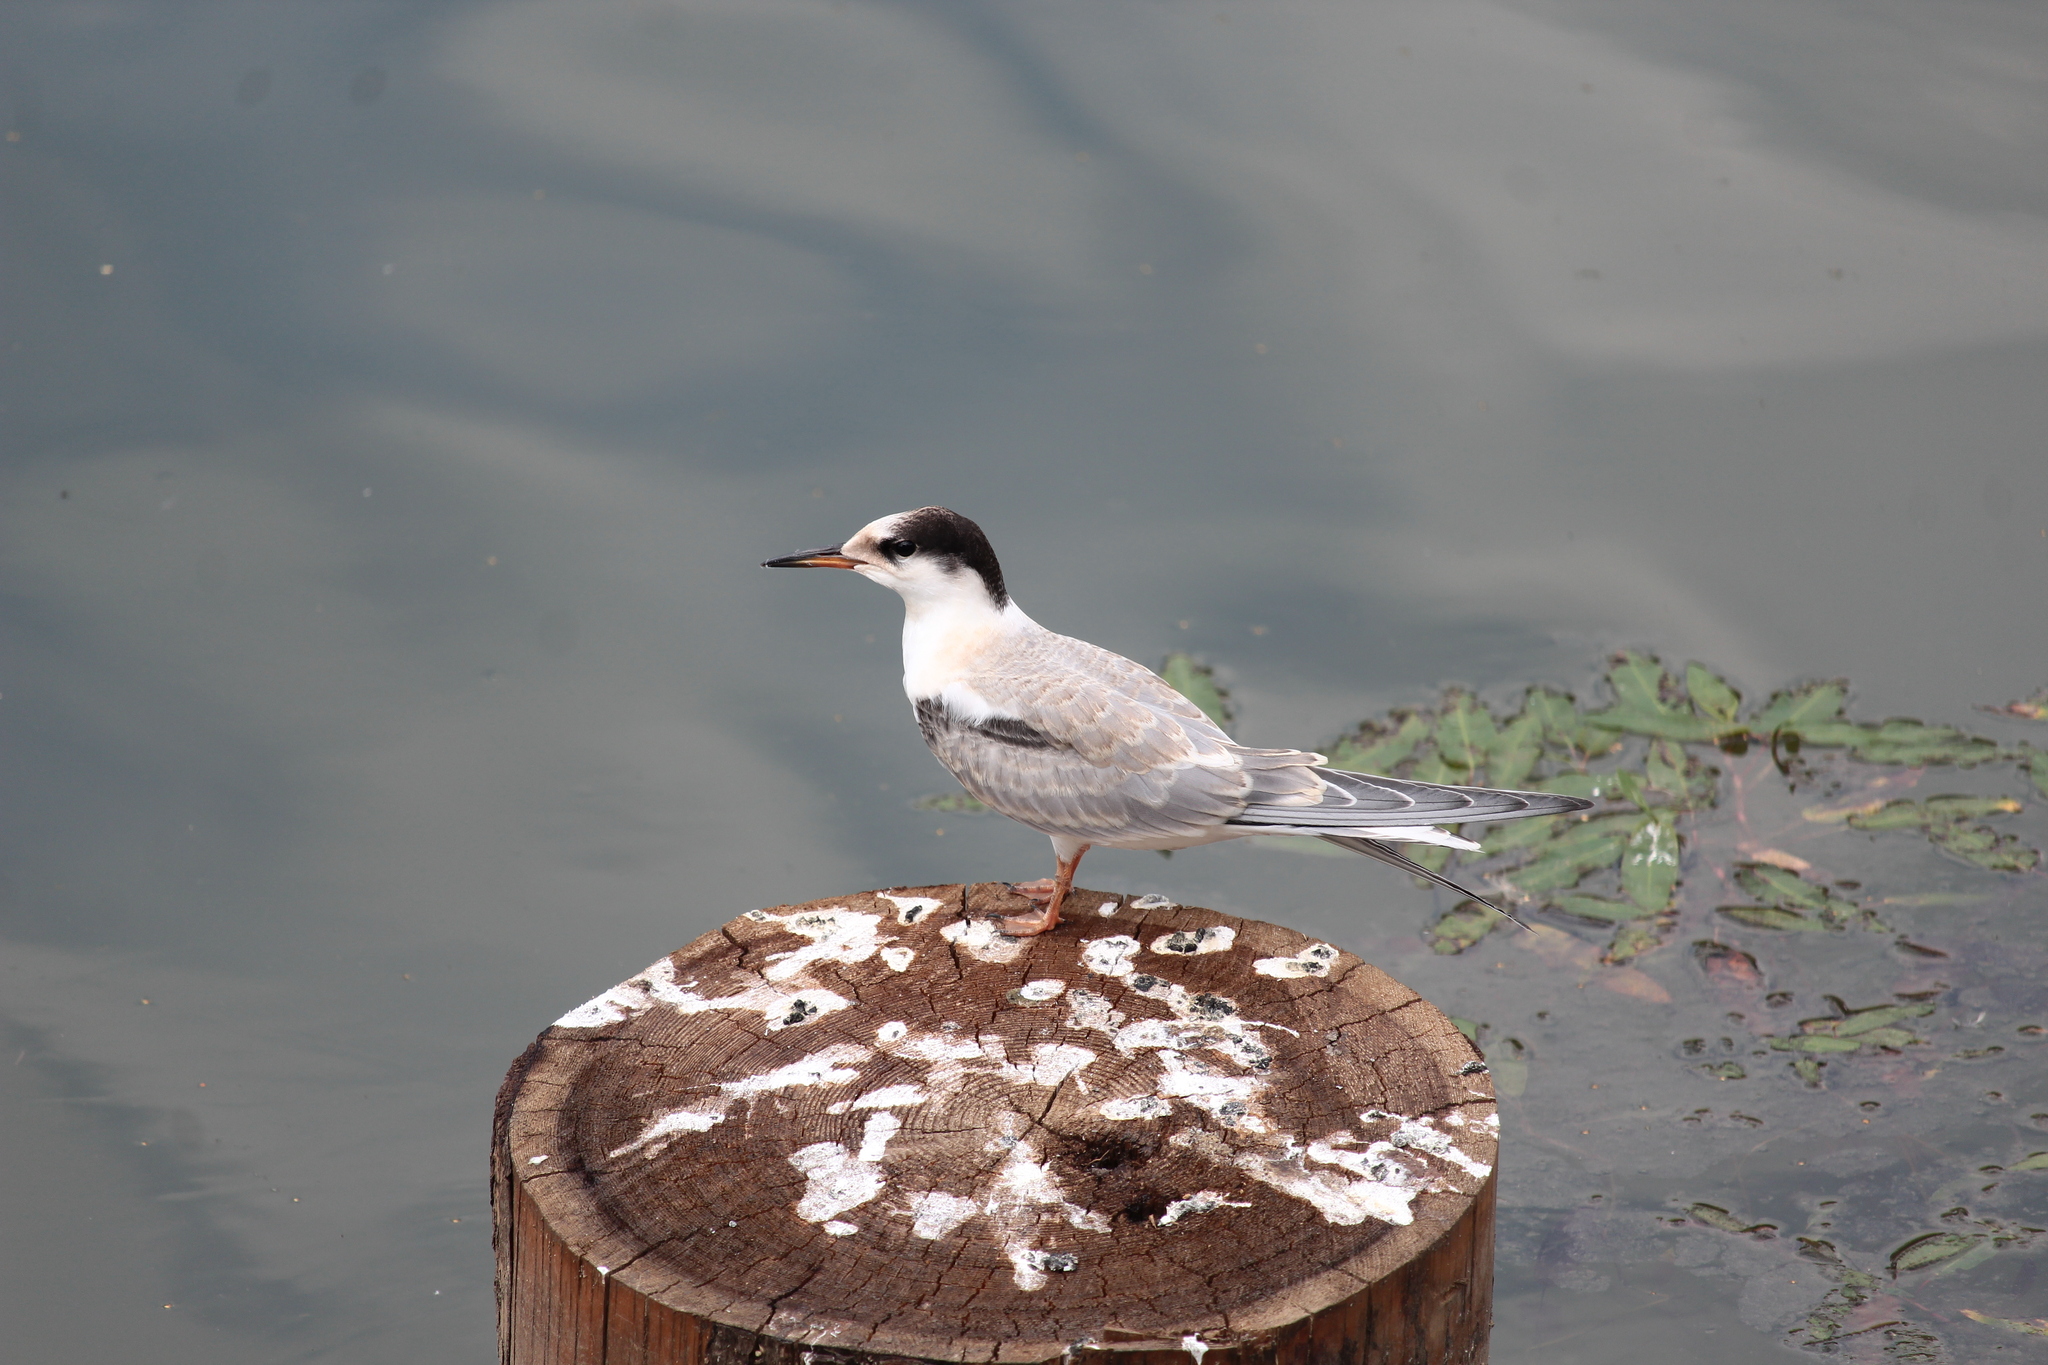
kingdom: Animalia
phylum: Chordata
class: Aves
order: Charadriiformes
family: Laridae
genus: Sterna
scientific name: Sterna hirundo
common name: Common tern
